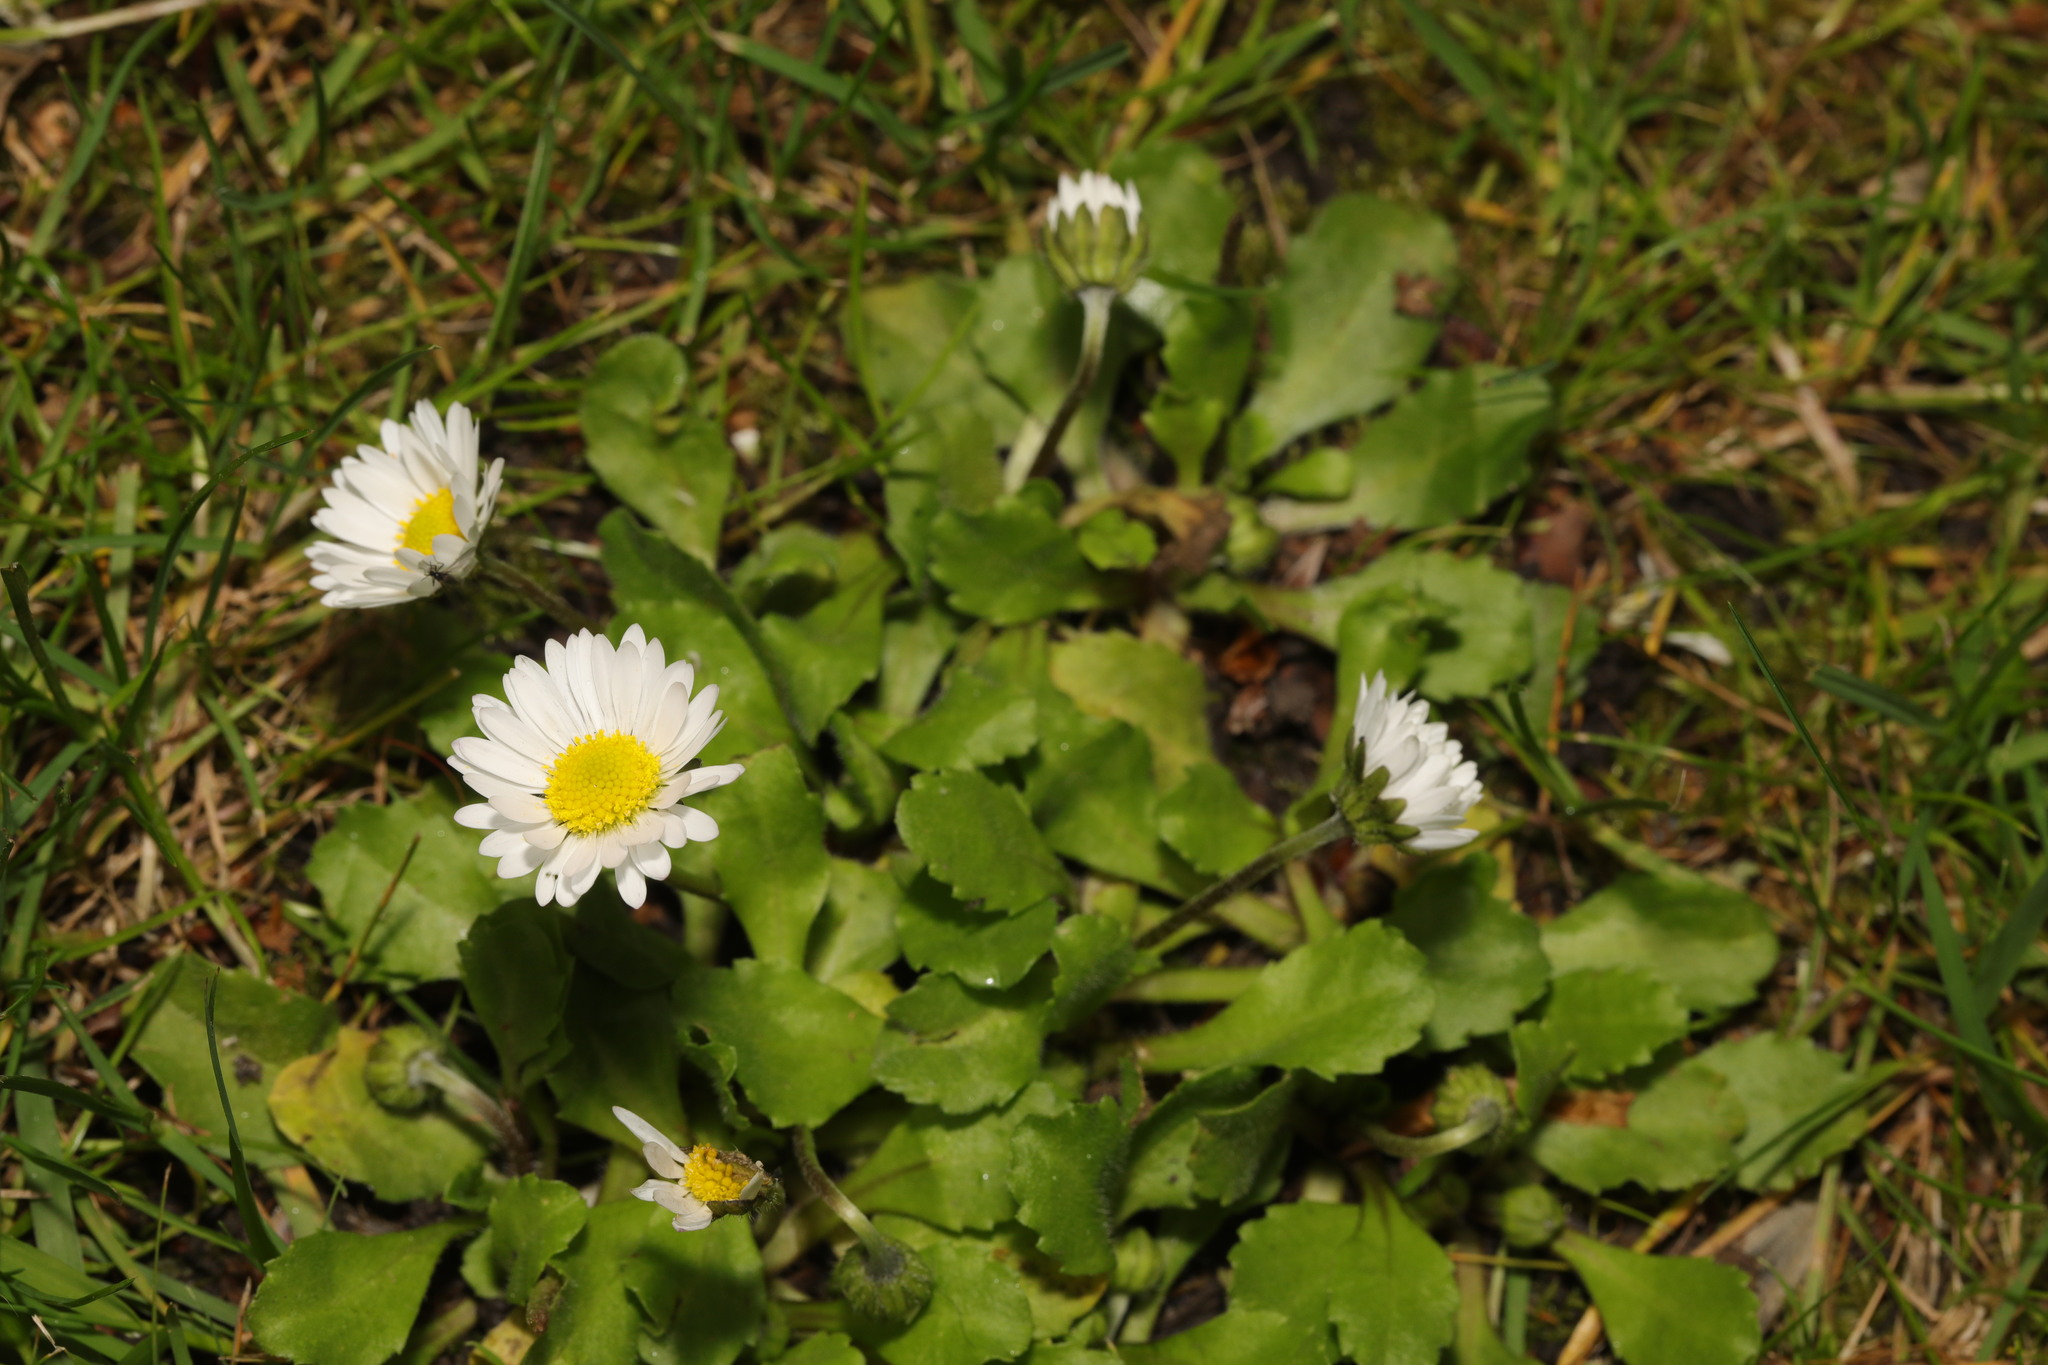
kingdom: Plantae
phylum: Tracheophyta
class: Magnoliopsida
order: Asterales
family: Asteraceae
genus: Bellis
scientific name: Bellis perennis
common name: Lawndaisy
